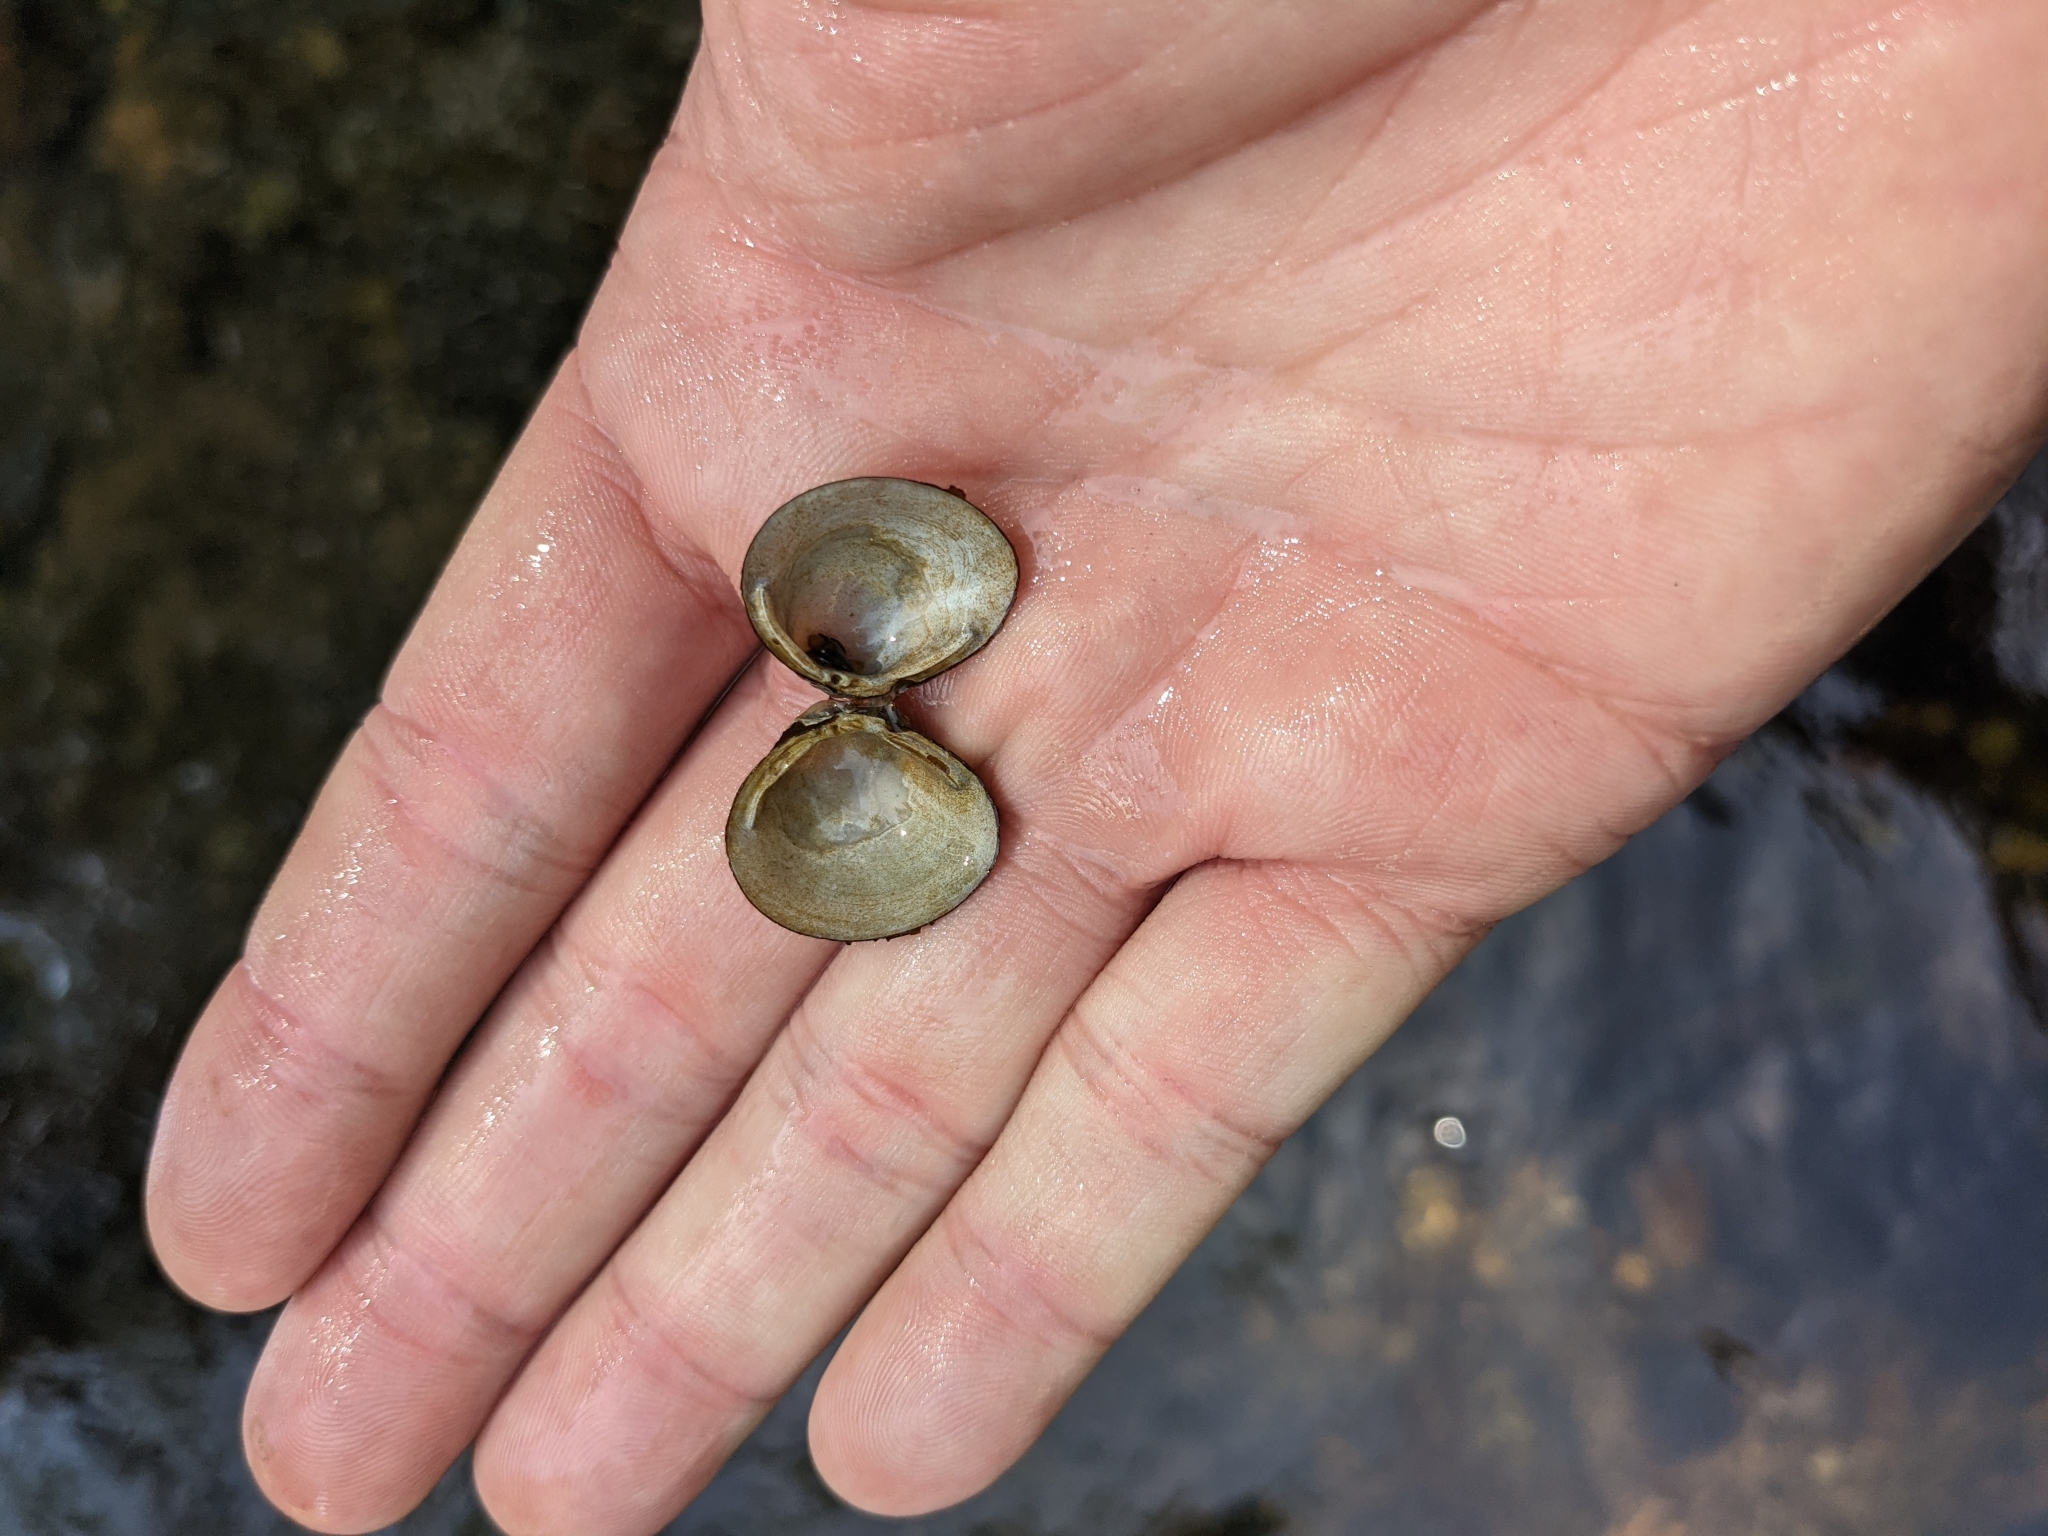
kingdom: Animalia
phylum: Mollusca
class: Bivalvia
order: Venerida
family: Cyrenidae
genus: Corbicula
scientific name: Corbicula fluminea
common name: Asian clam
